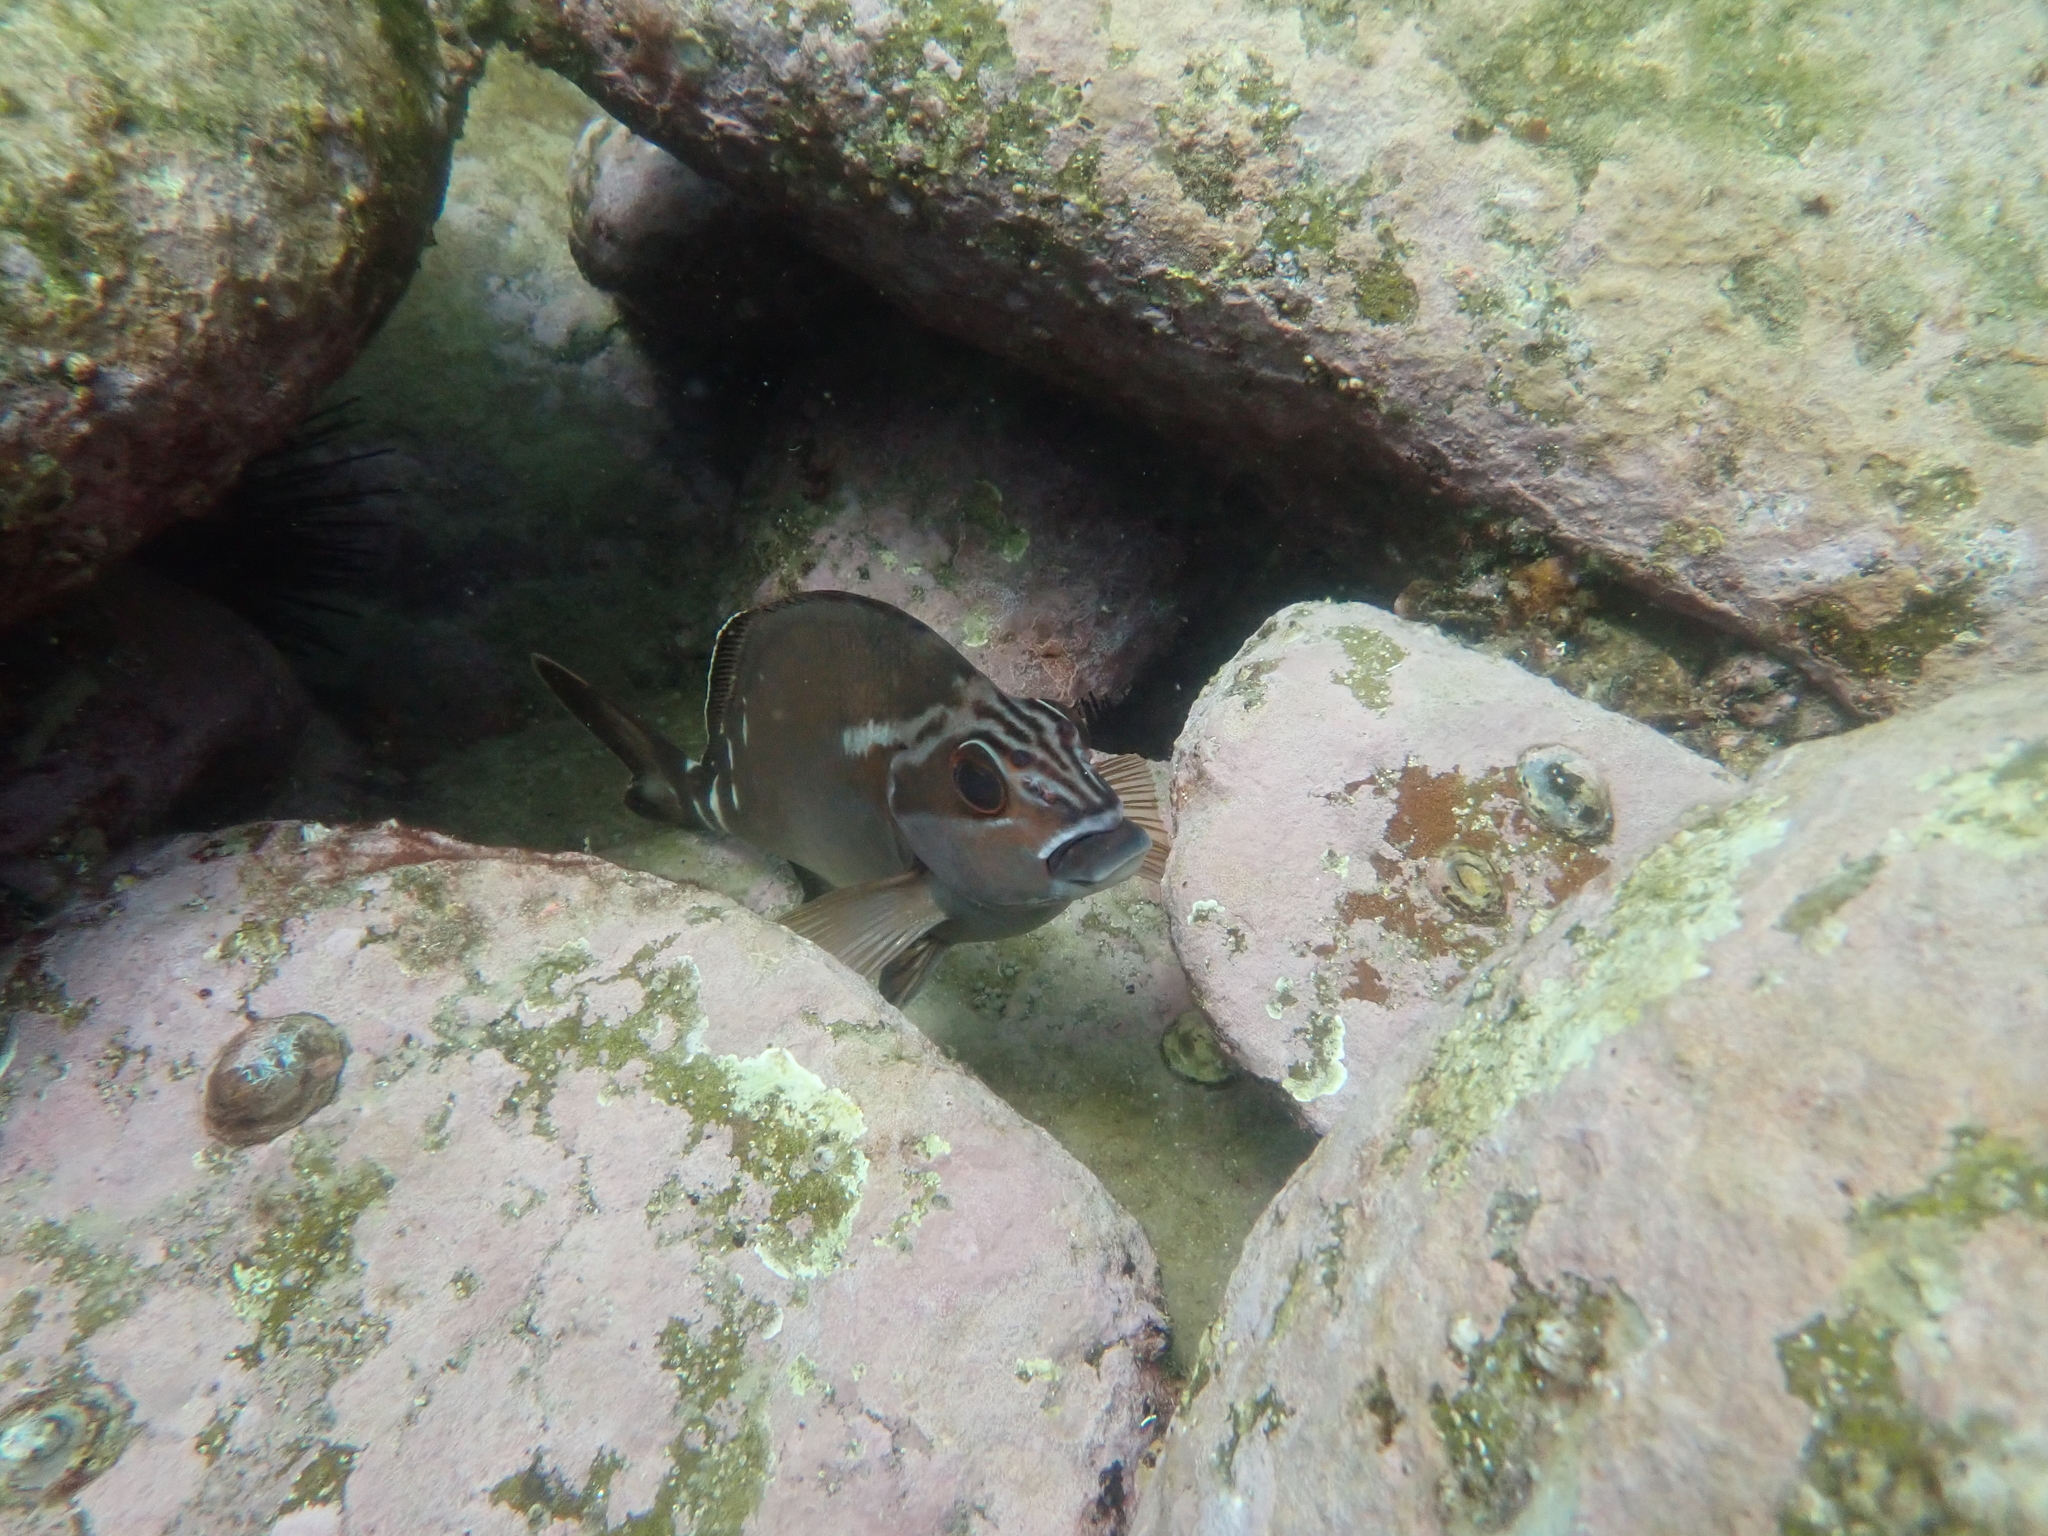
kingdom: Animalia
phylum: Chordata
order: Perciformes
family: Latridae
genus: Morwong
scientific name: Morwong fuscus
